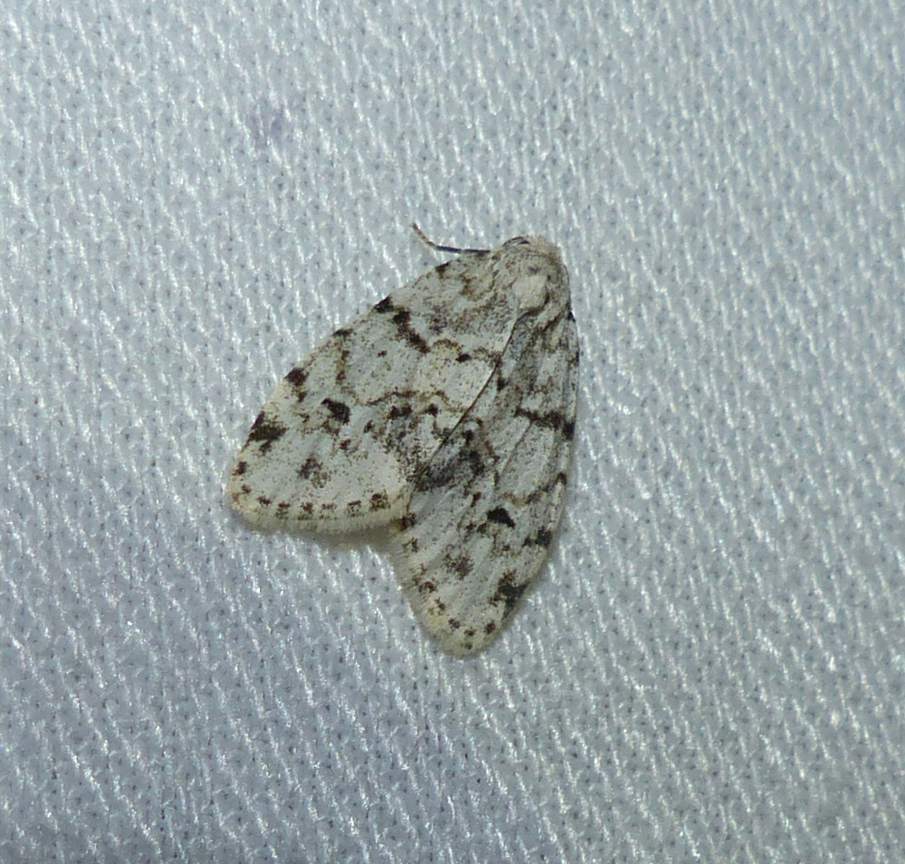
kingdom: Animalia
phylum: Arthropoda
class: Insecta
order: Lepidoptera
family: Erebidae
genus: Clemensia
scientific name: Clemensia albata
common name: Little white lichen moth
